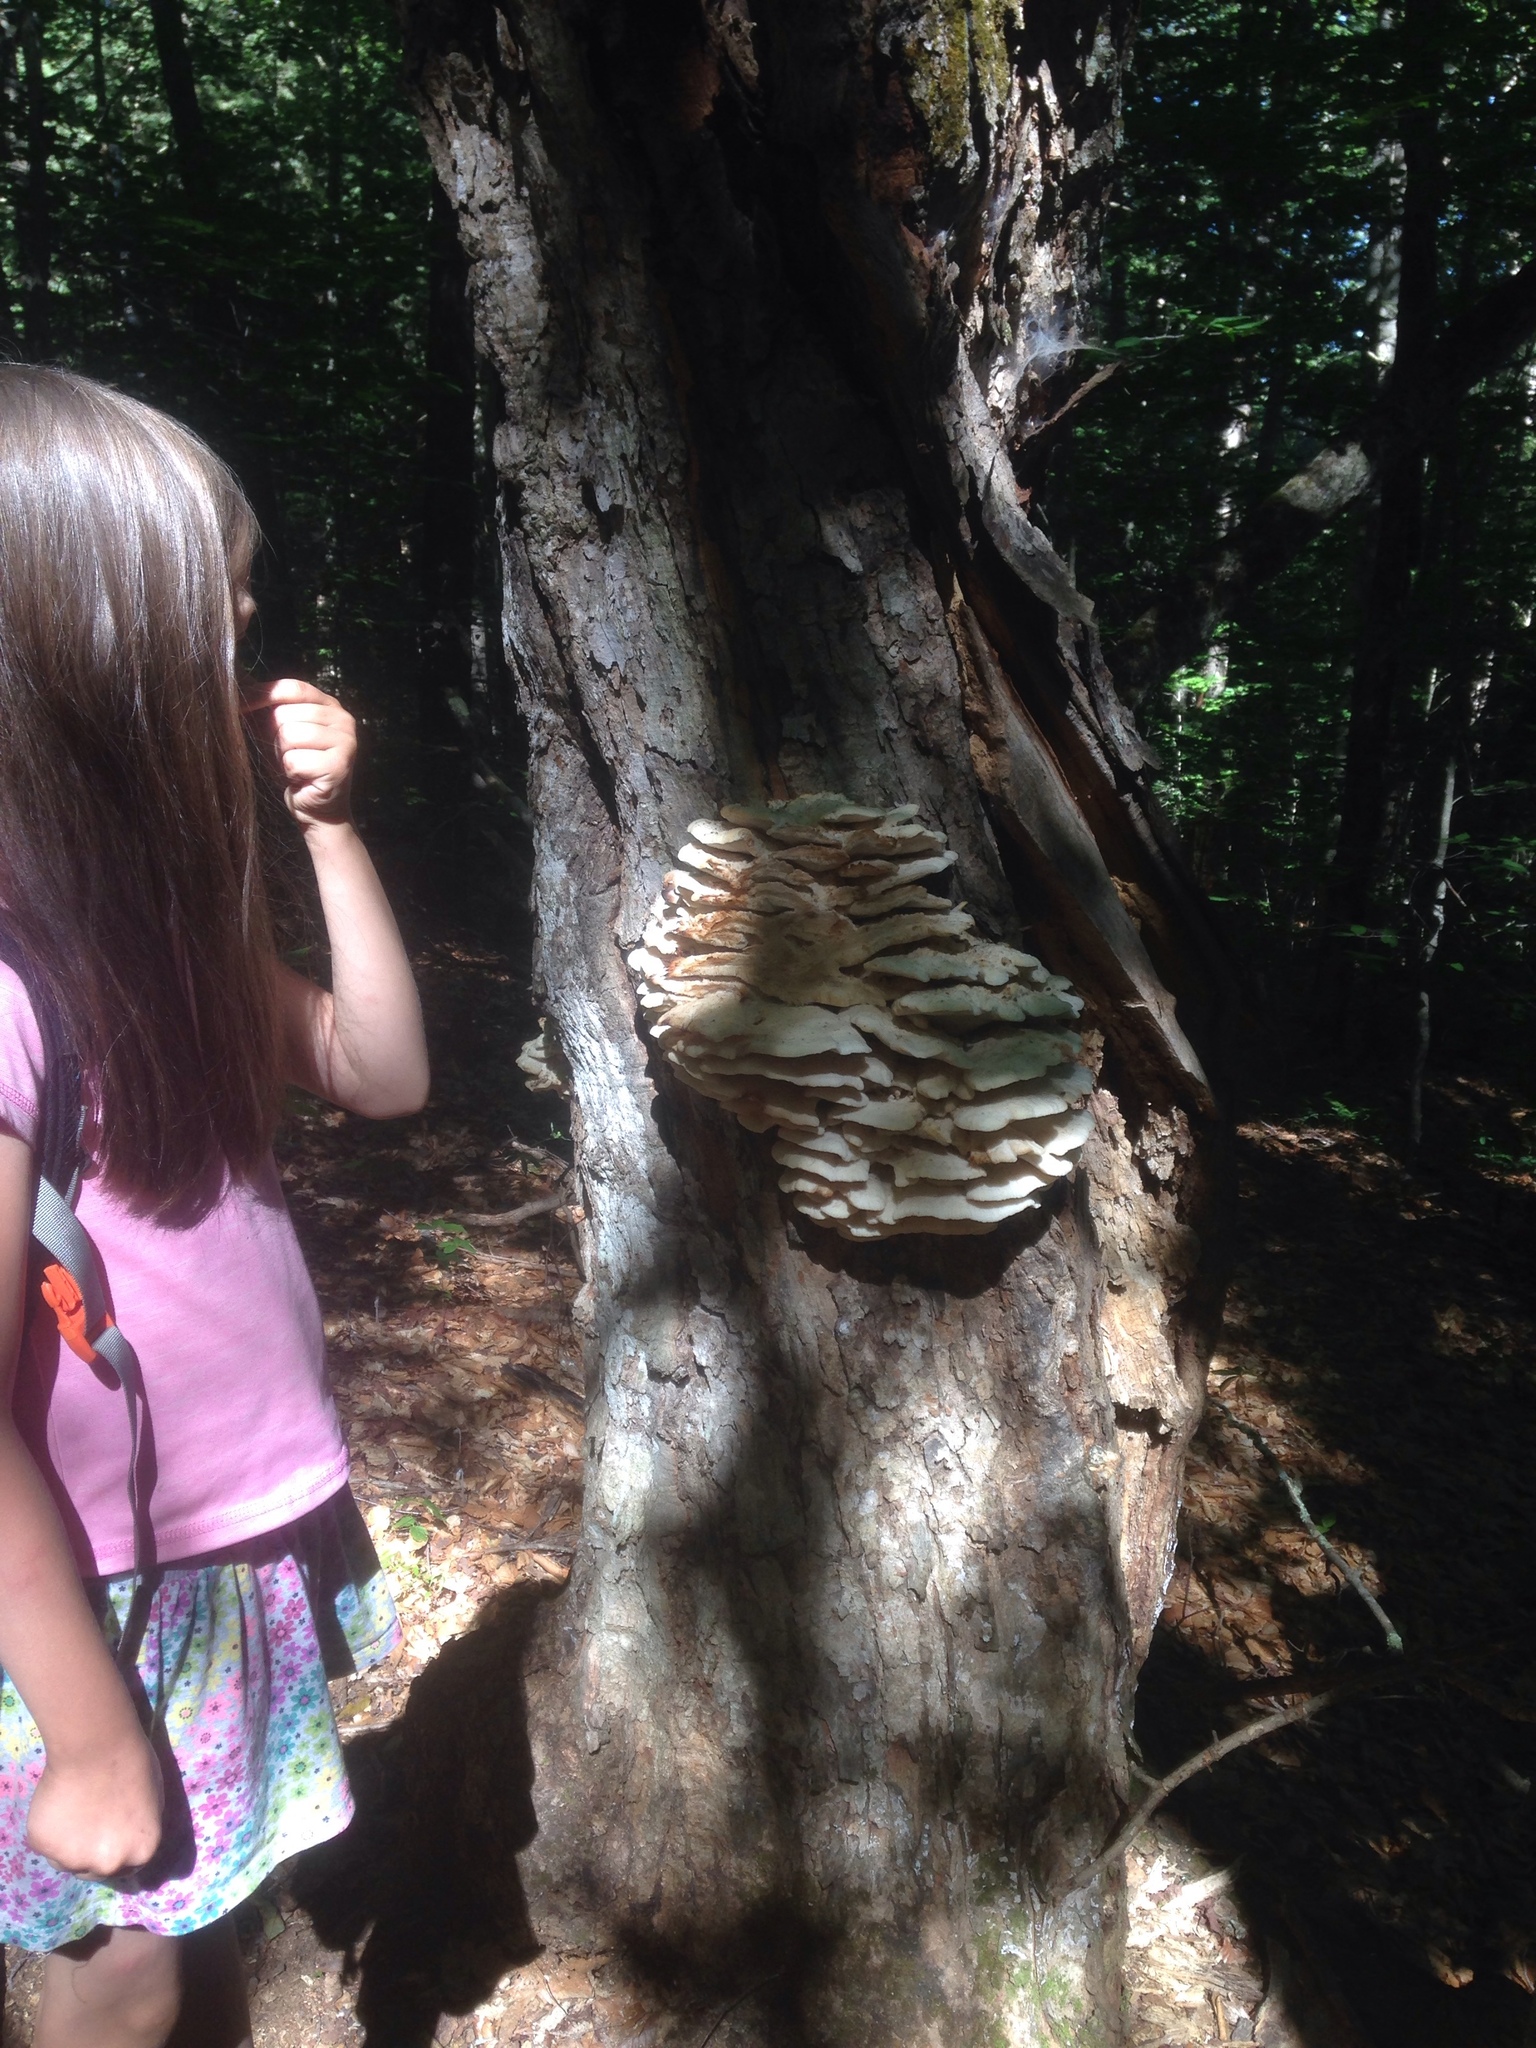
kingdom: Fungi
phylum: Basidiomycota
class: Agaricomycetes
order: Polyporales
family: Meruliaceae
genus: Climacodon
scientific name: Climacodon septentrionalis
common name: Northern tooth
